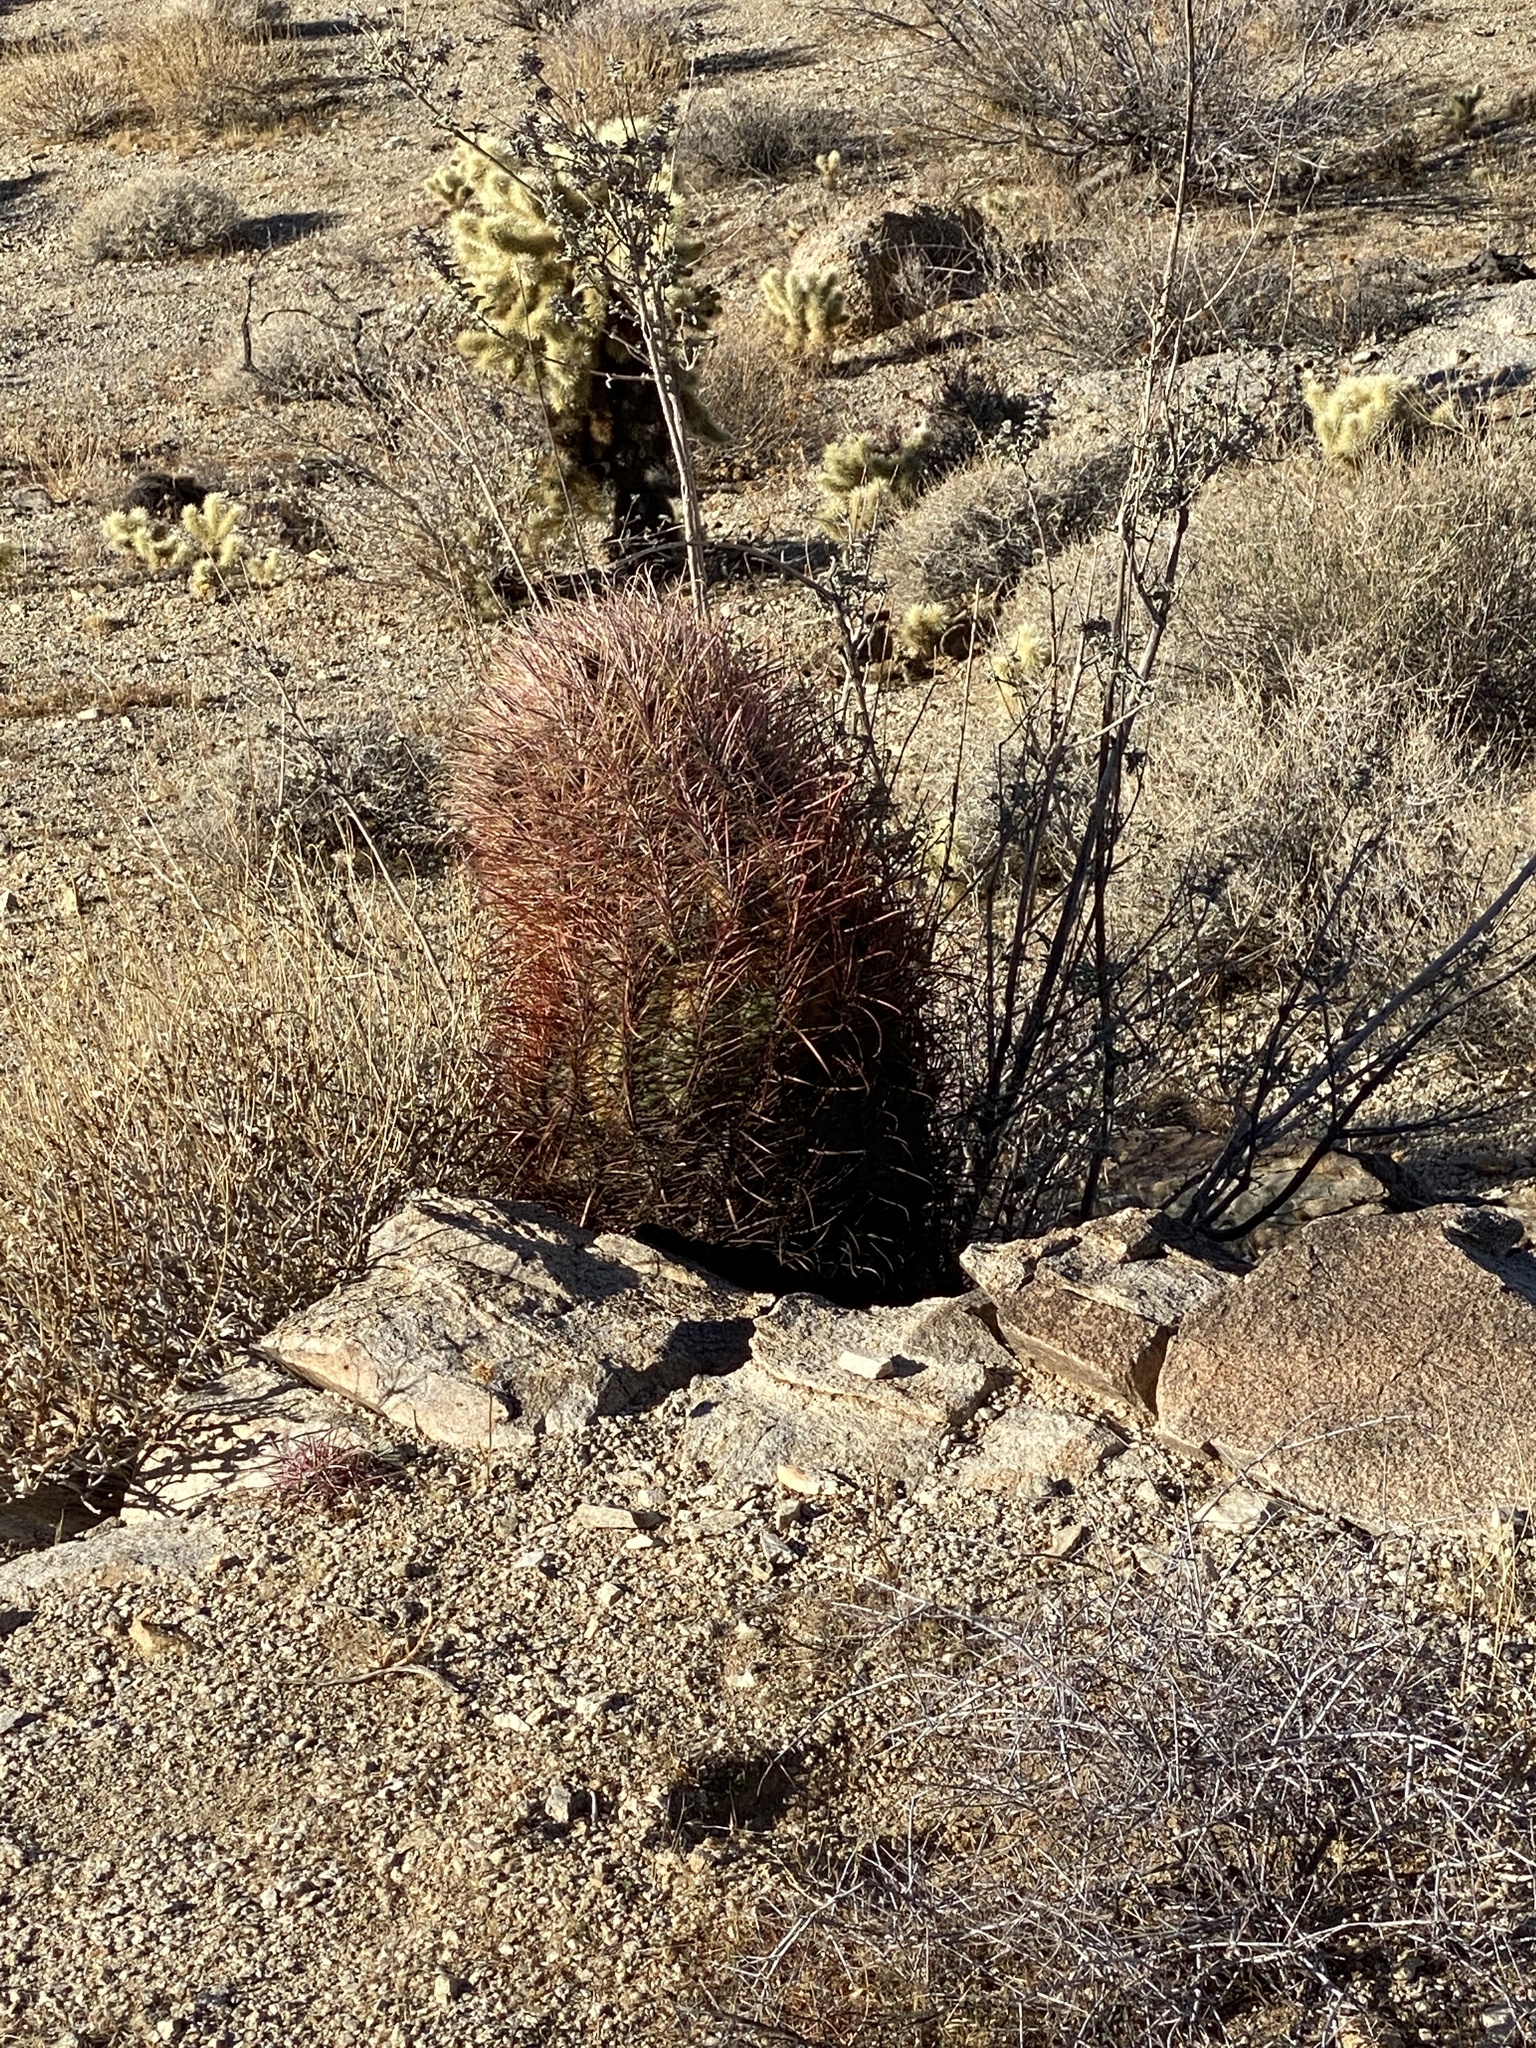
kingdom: Plantae
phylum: Tracheophyta
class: Magnoliopsida
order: Caryophyllales
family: Cactaceae
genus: Ferocactus
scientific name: Ferocactus cylindraceus
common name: California barrel cactus
